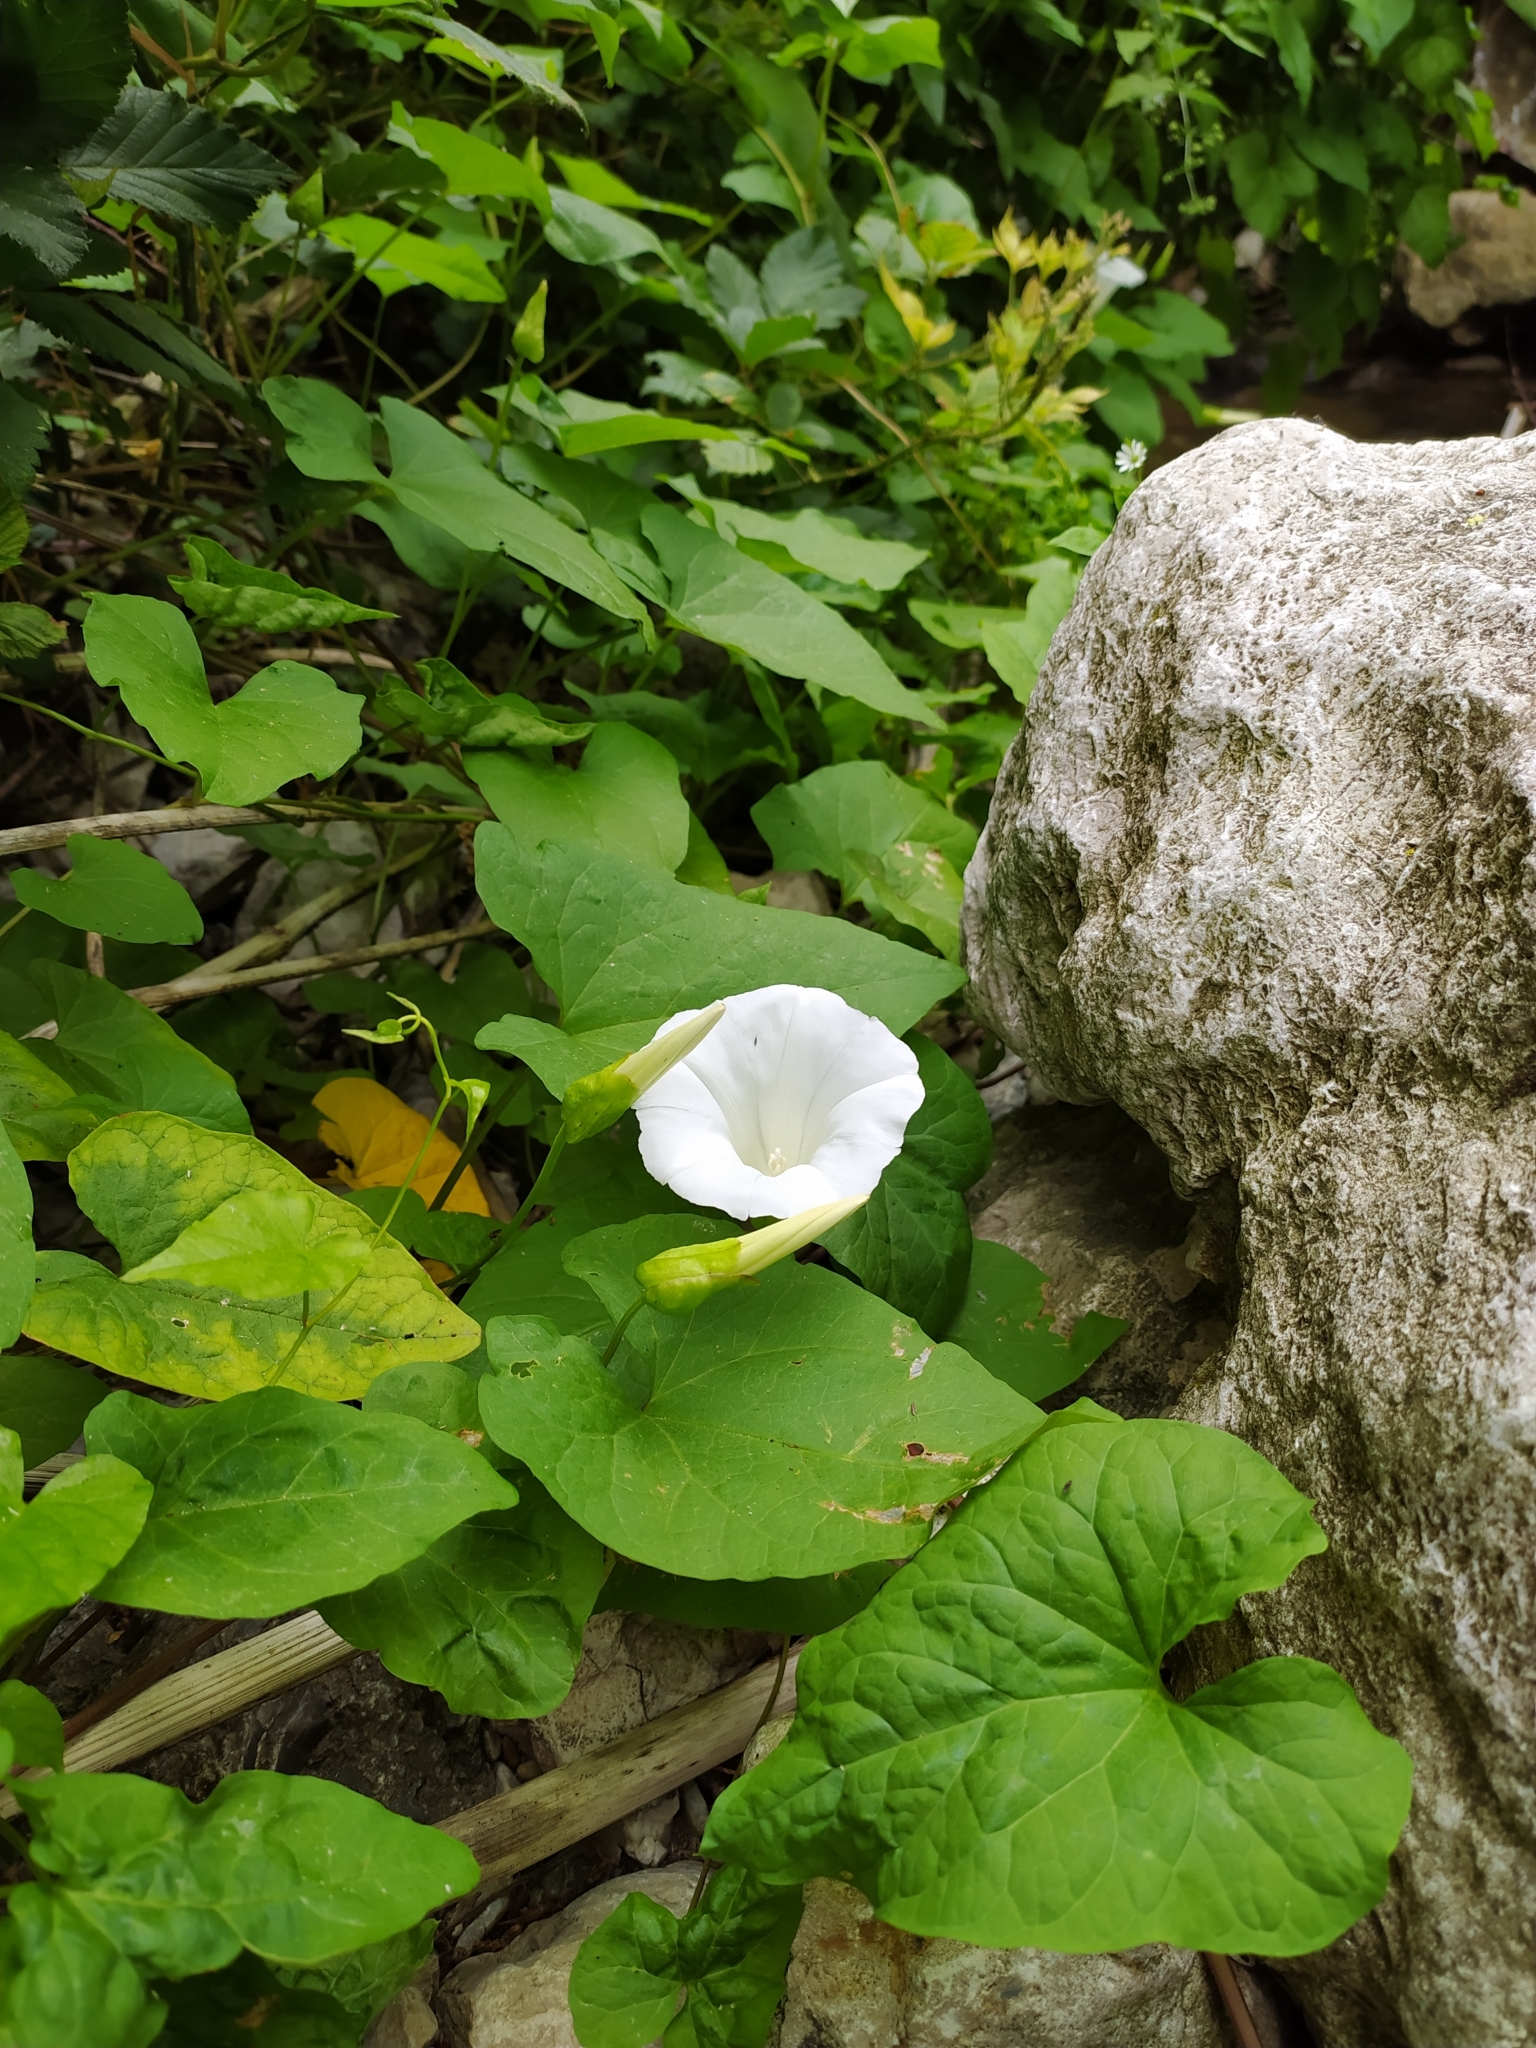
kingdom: Plantae
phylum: Tracheophyta
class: Magnoliopsida
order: Solanales
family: Convolvulaceae
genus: Calystegia
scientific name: Calystegia silvatica
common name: Large bindweed
